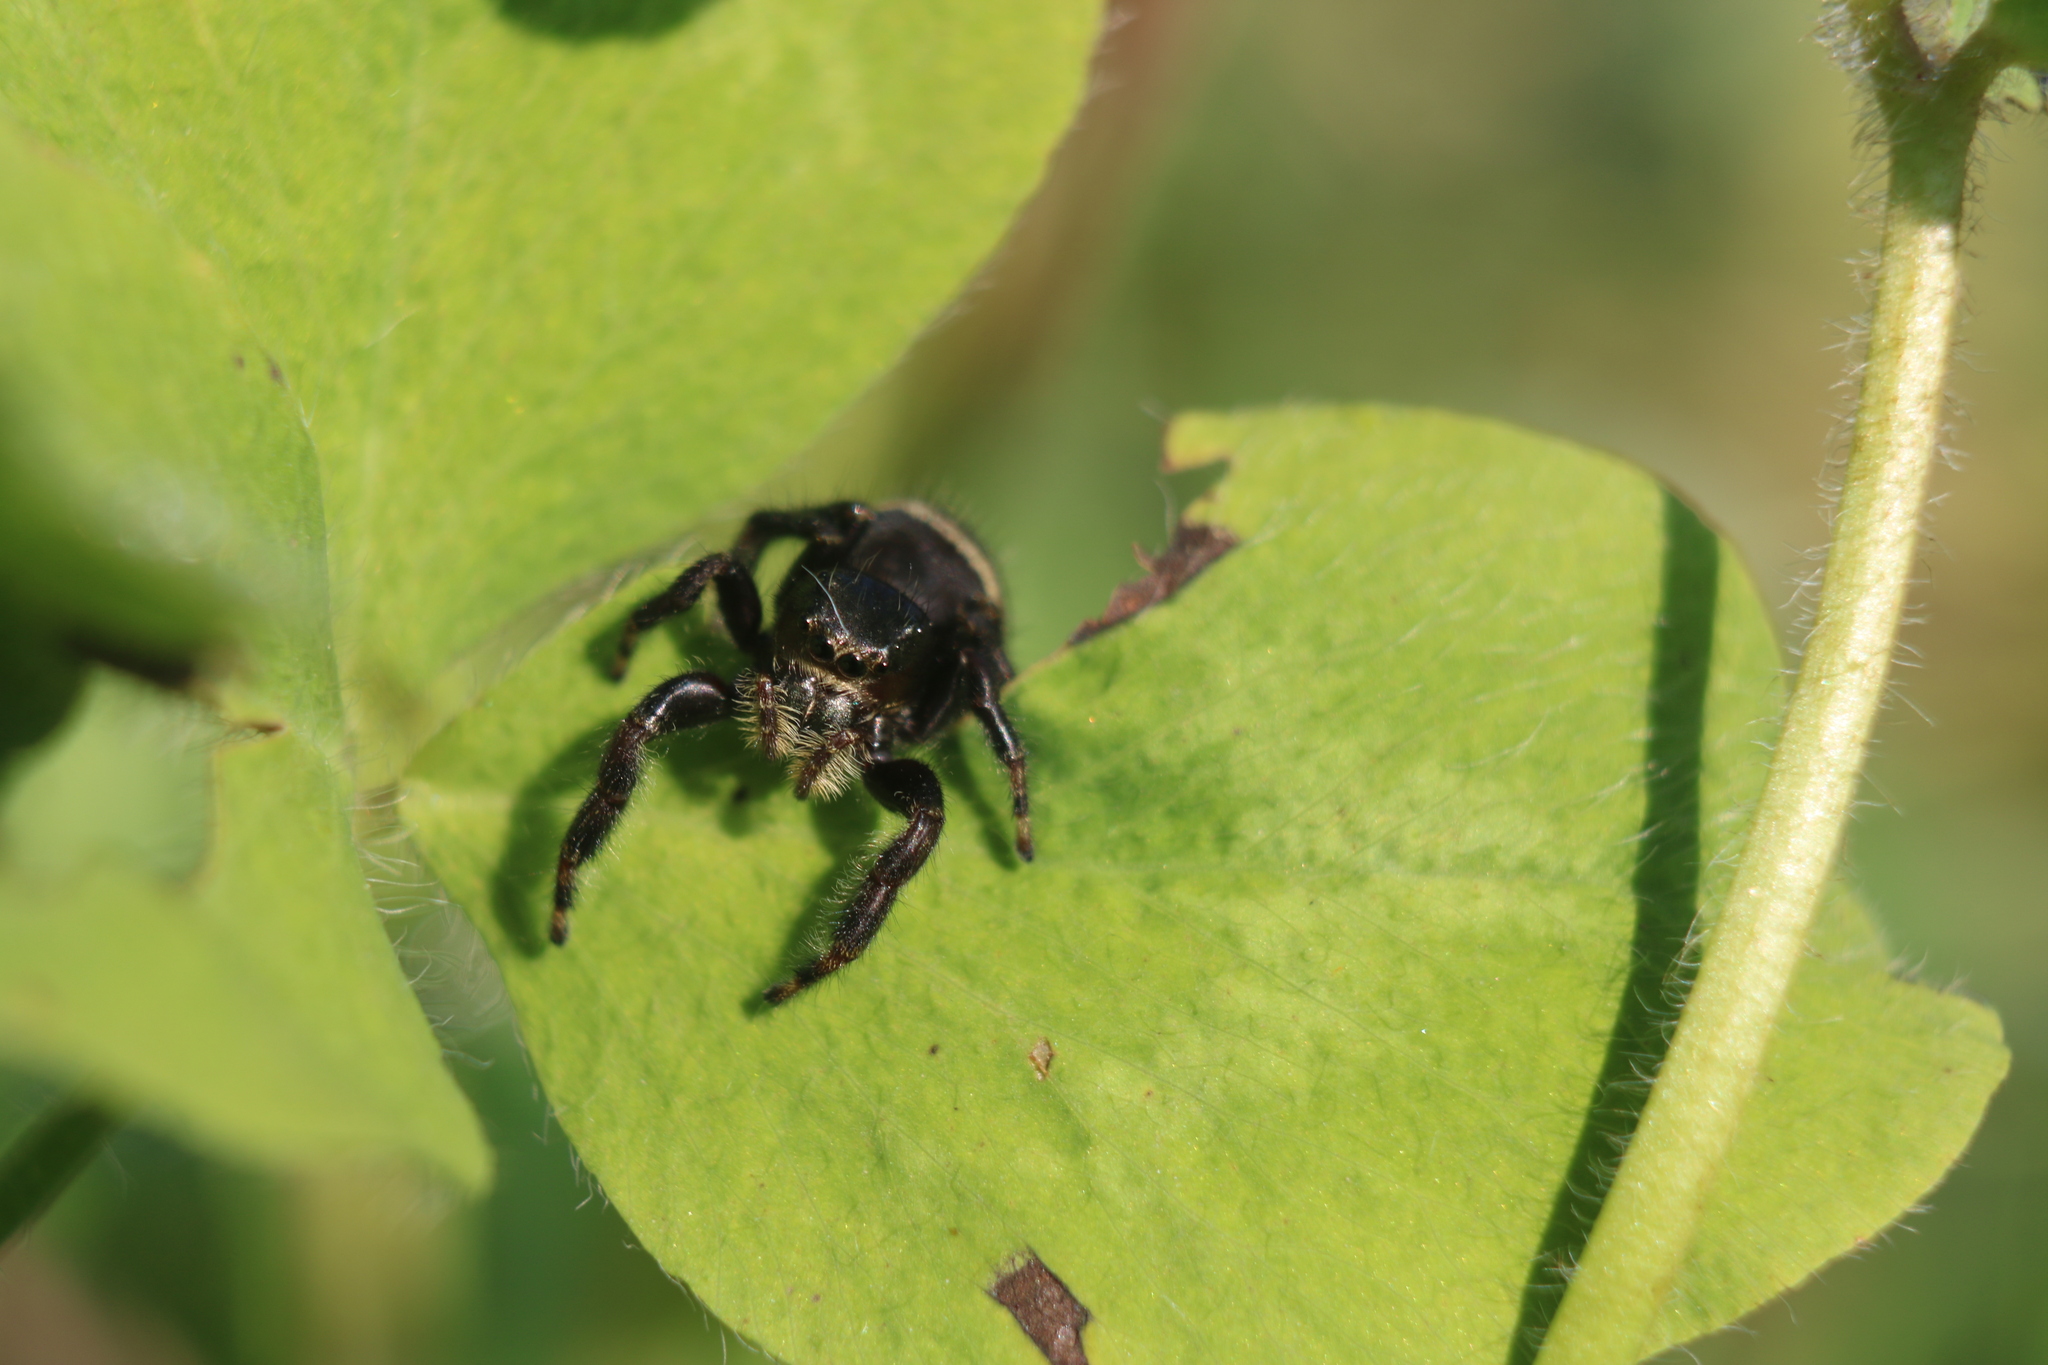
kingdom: Animalia
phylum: Arthropoda
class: Arachnida
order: Araneae
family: Salticidae
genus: Phidippus
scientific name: Phidippus clarus
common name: Brilliant jumping spider
